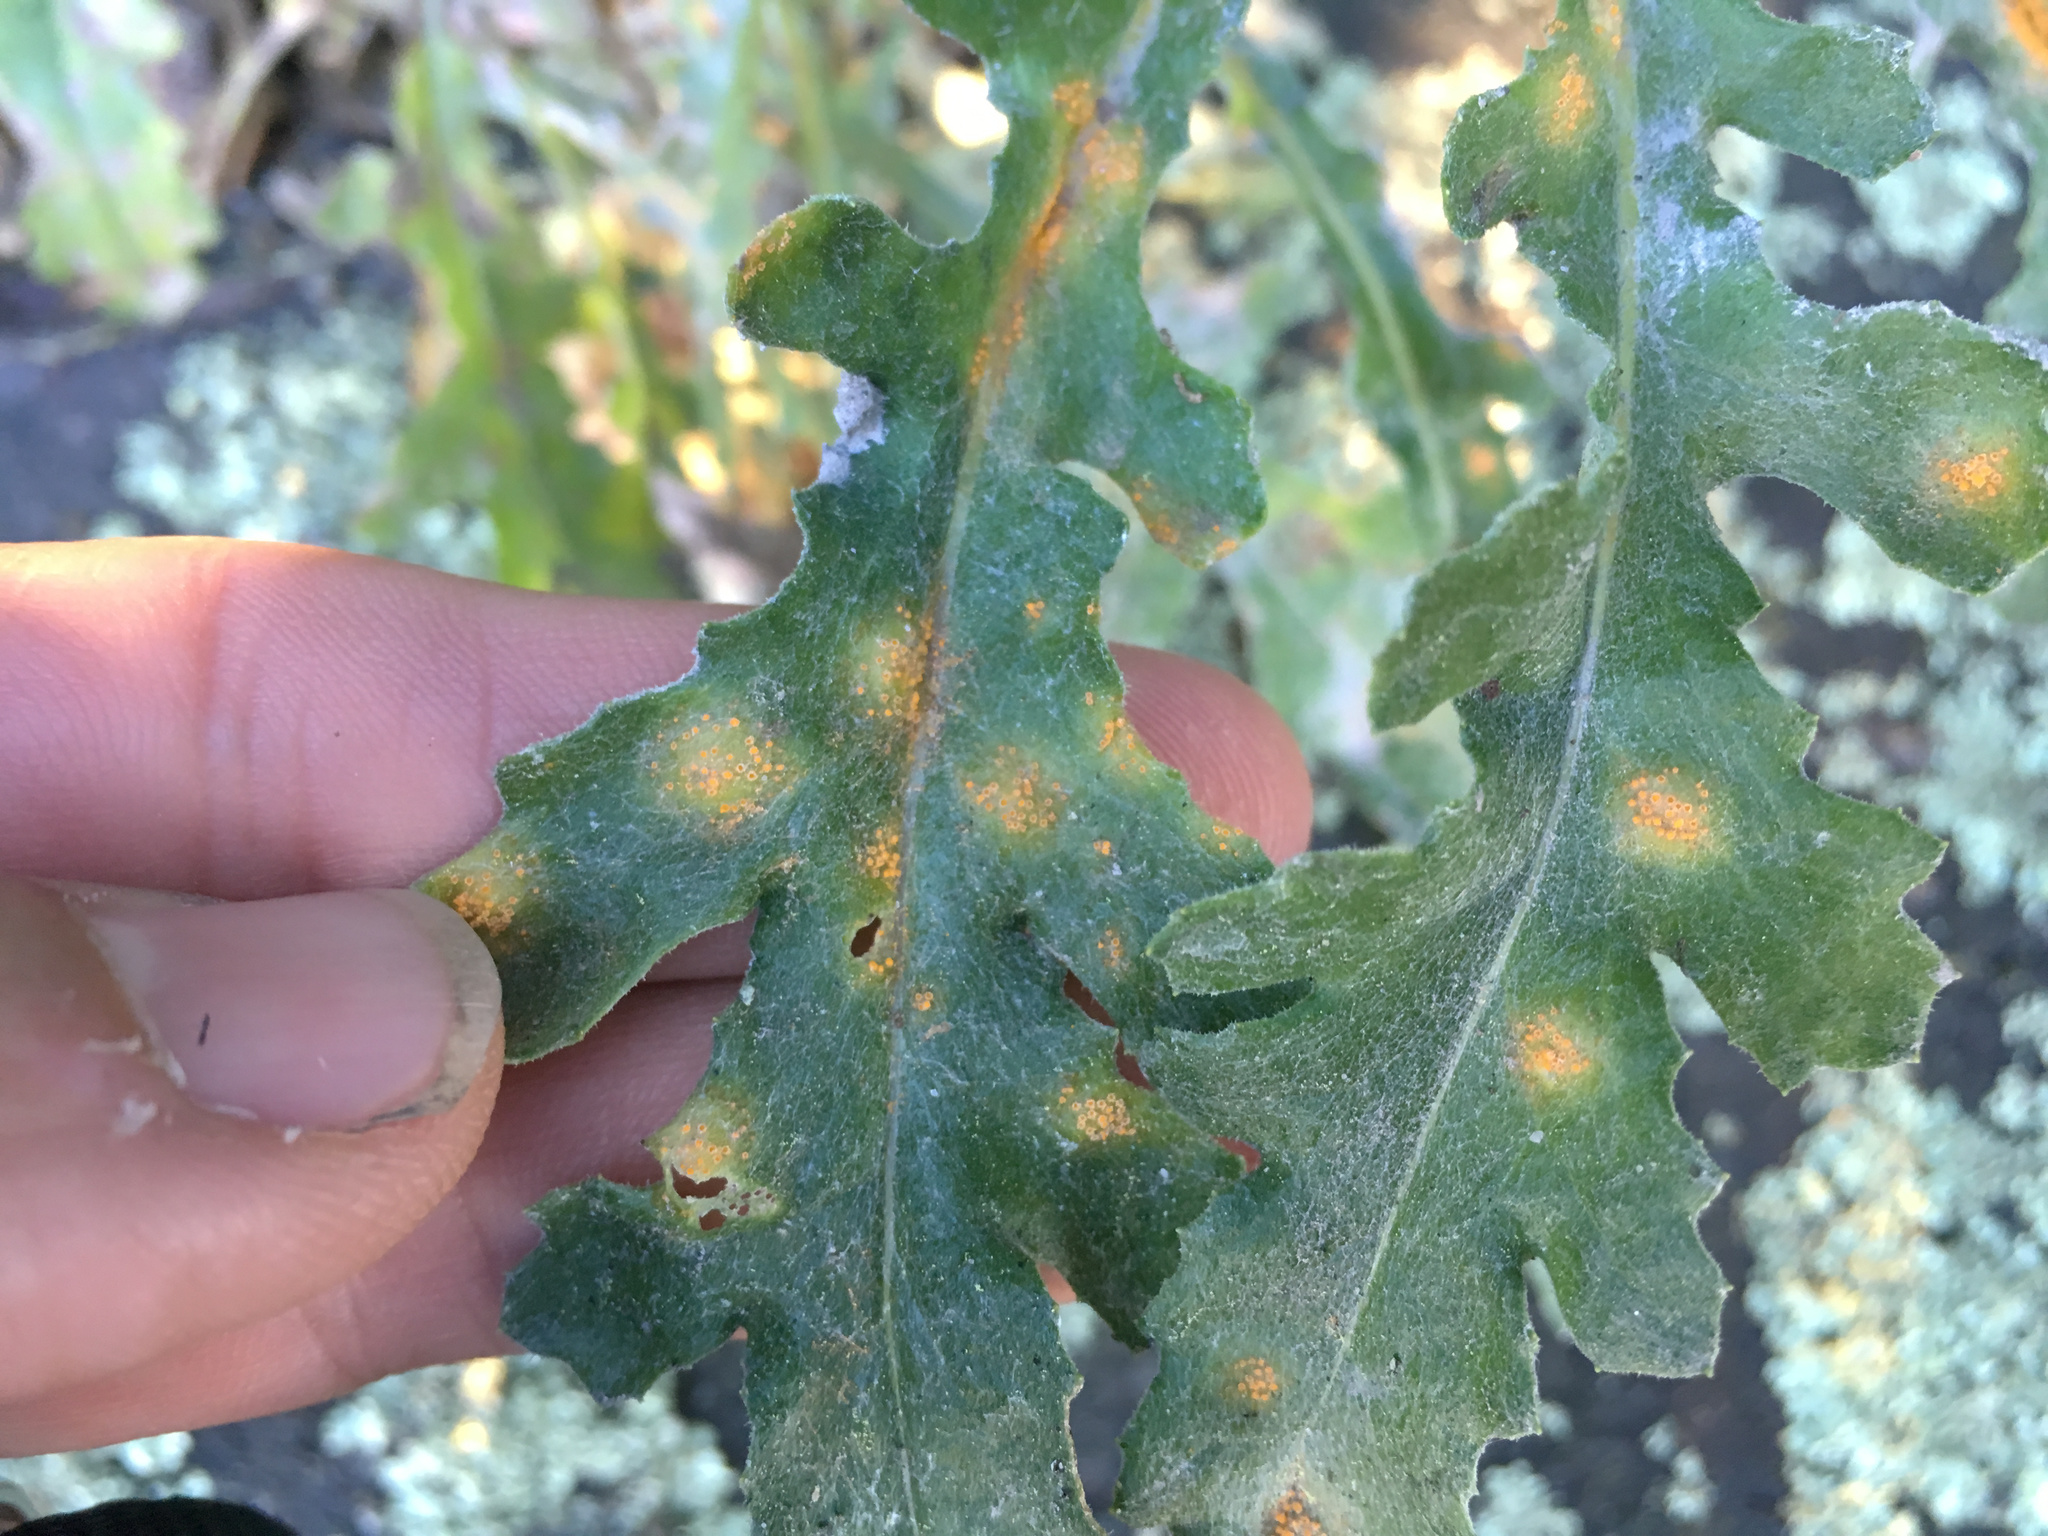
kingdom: Fungi
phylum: Basidiomycota
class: Pucciniomycetes
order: Pucciniales
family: Pucciniaceae
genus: Puccinia
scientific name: Puccinia lagenophorae
